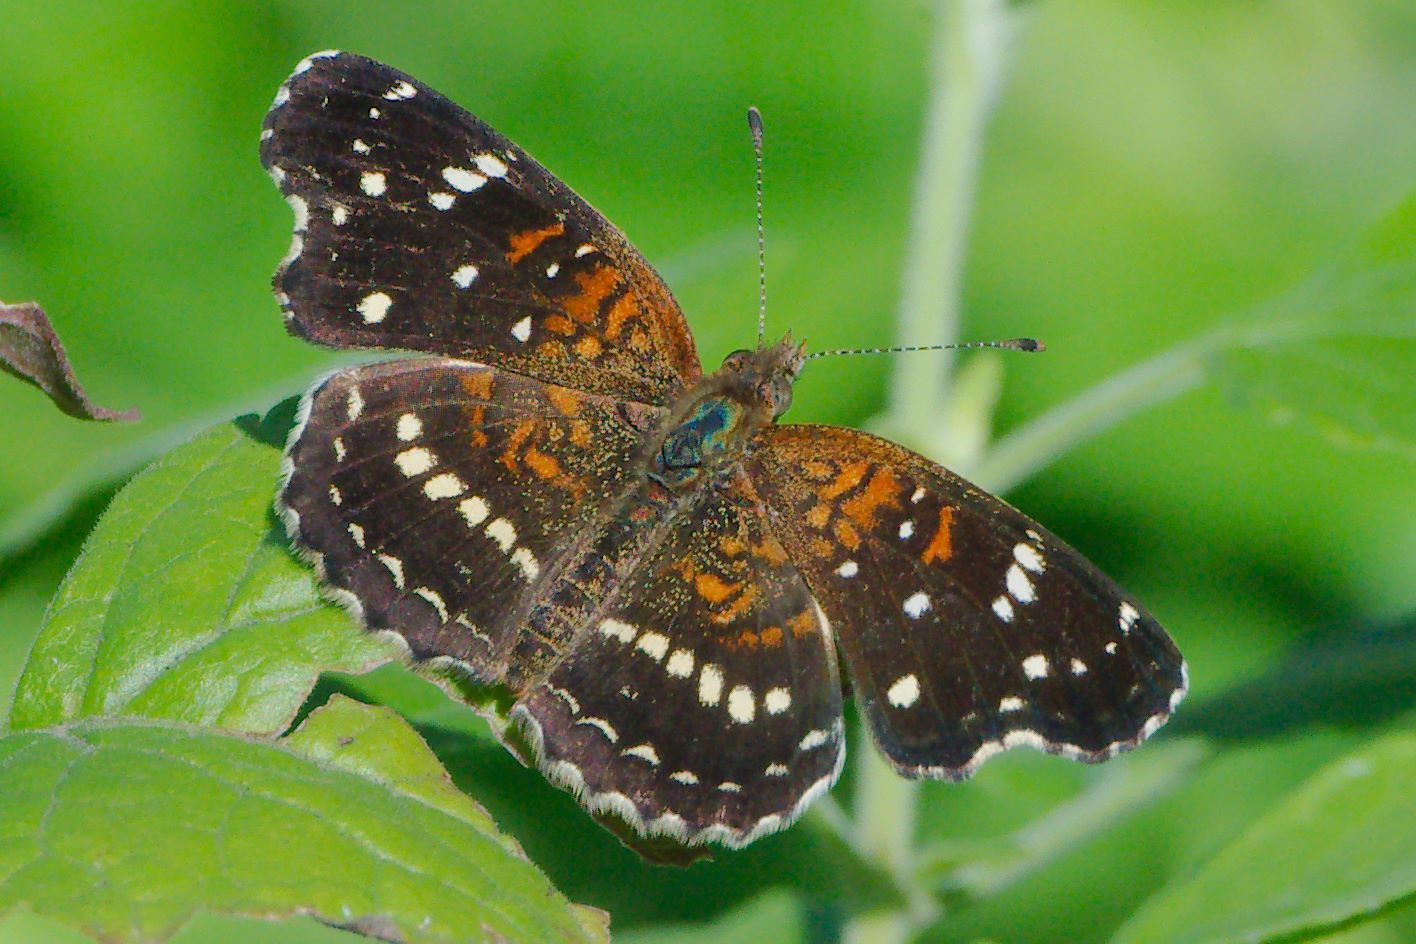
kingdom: Animalia
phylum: Arthropoda
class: Insecta
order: Lepidoptera
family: Nymphalidae
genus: Anthanassa
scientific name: Anthanassa texana
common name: Texan crescent
